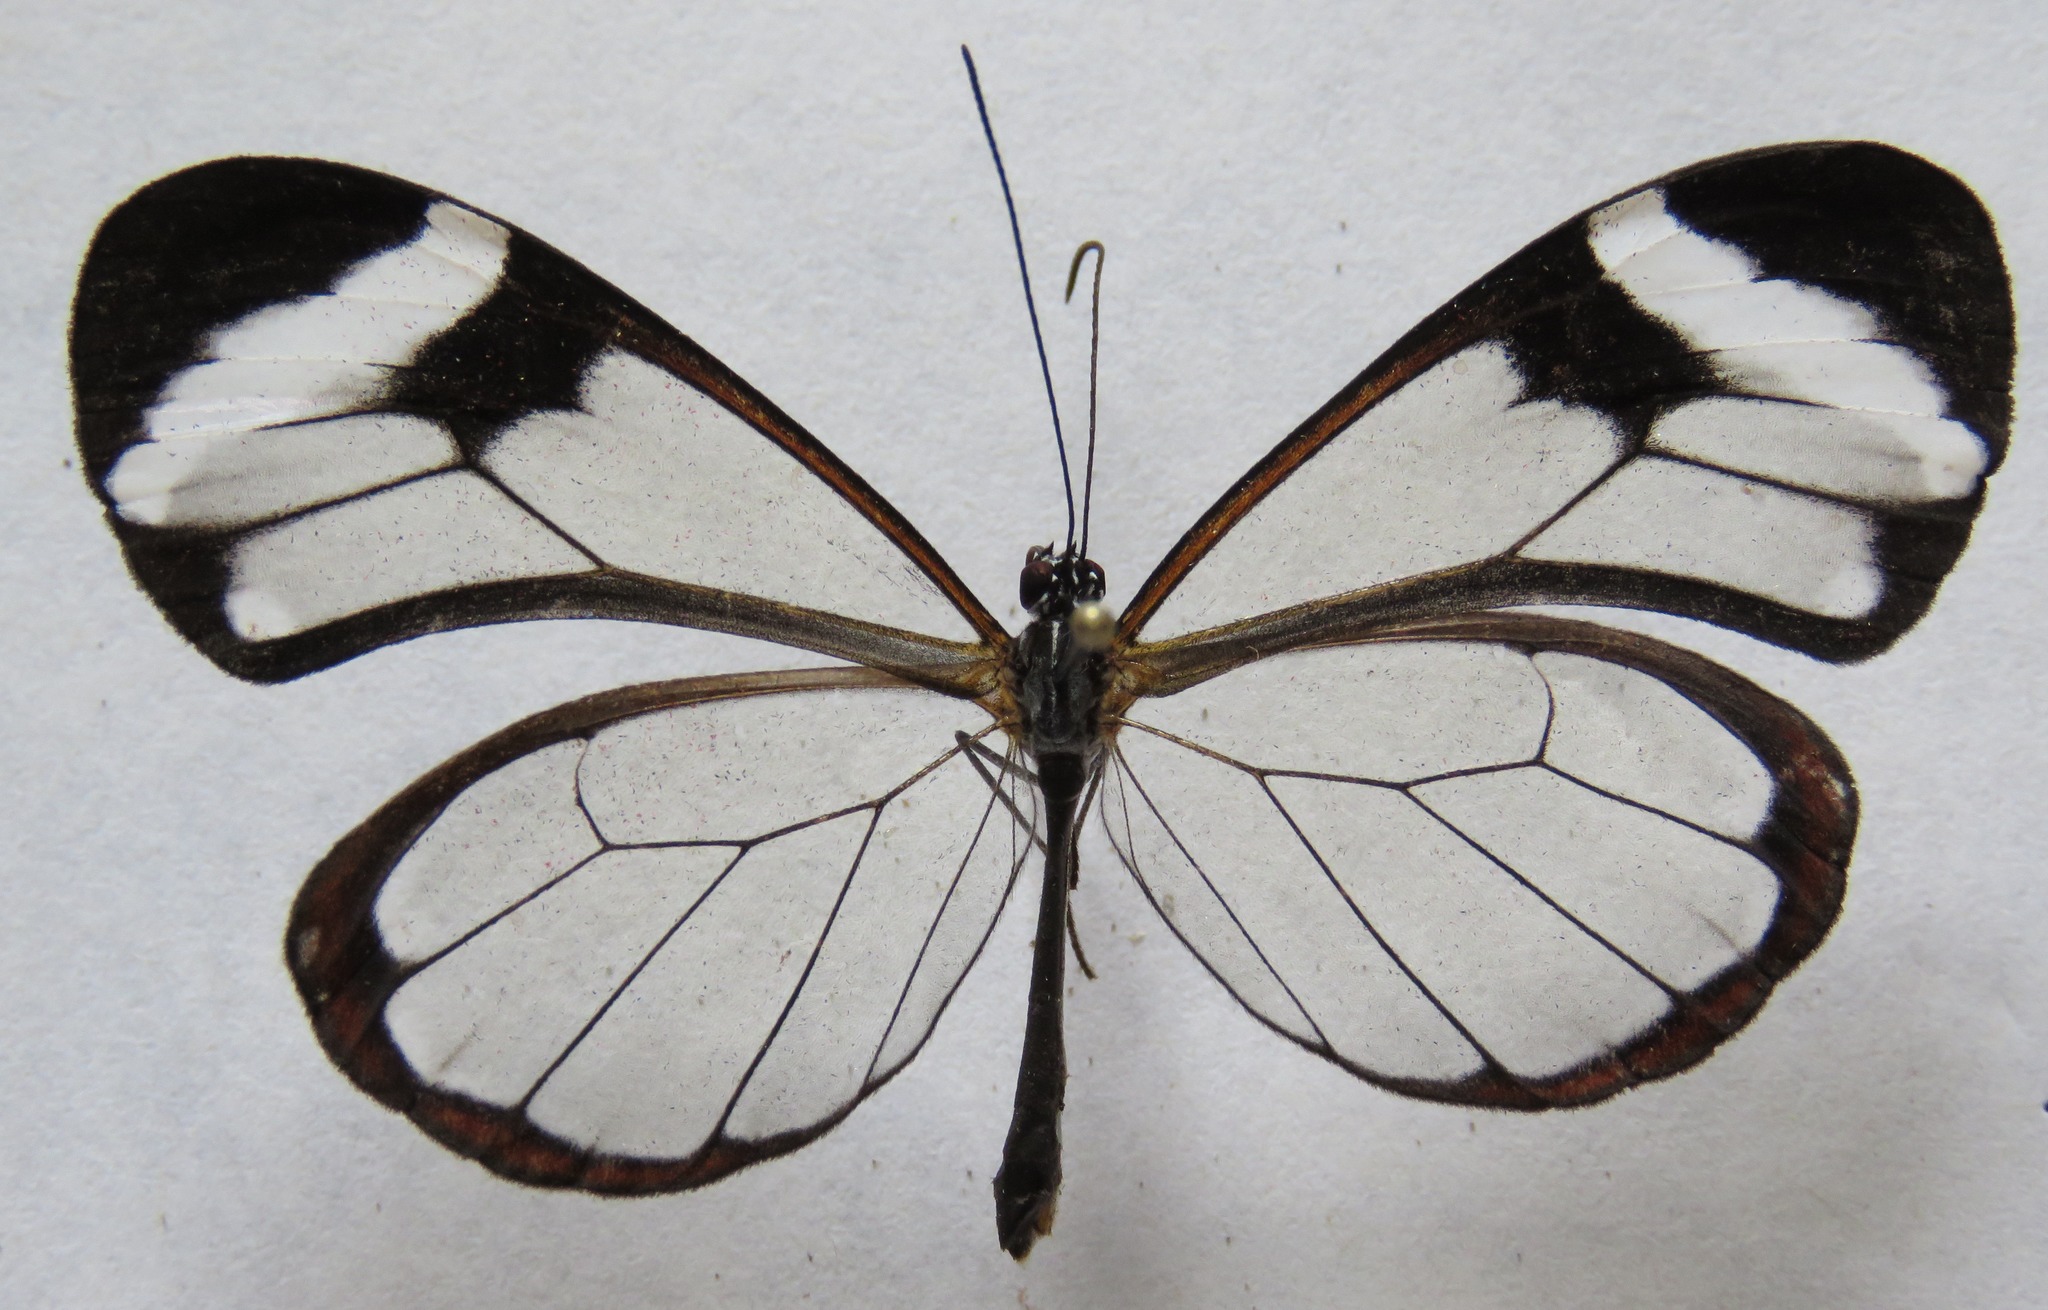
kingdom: Animalia
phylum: Arthropoda
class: Insecta
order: Lepidoptera
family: Nymphalidae
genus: Greta
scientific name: Greta morgane
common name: Thick-tipped greta
